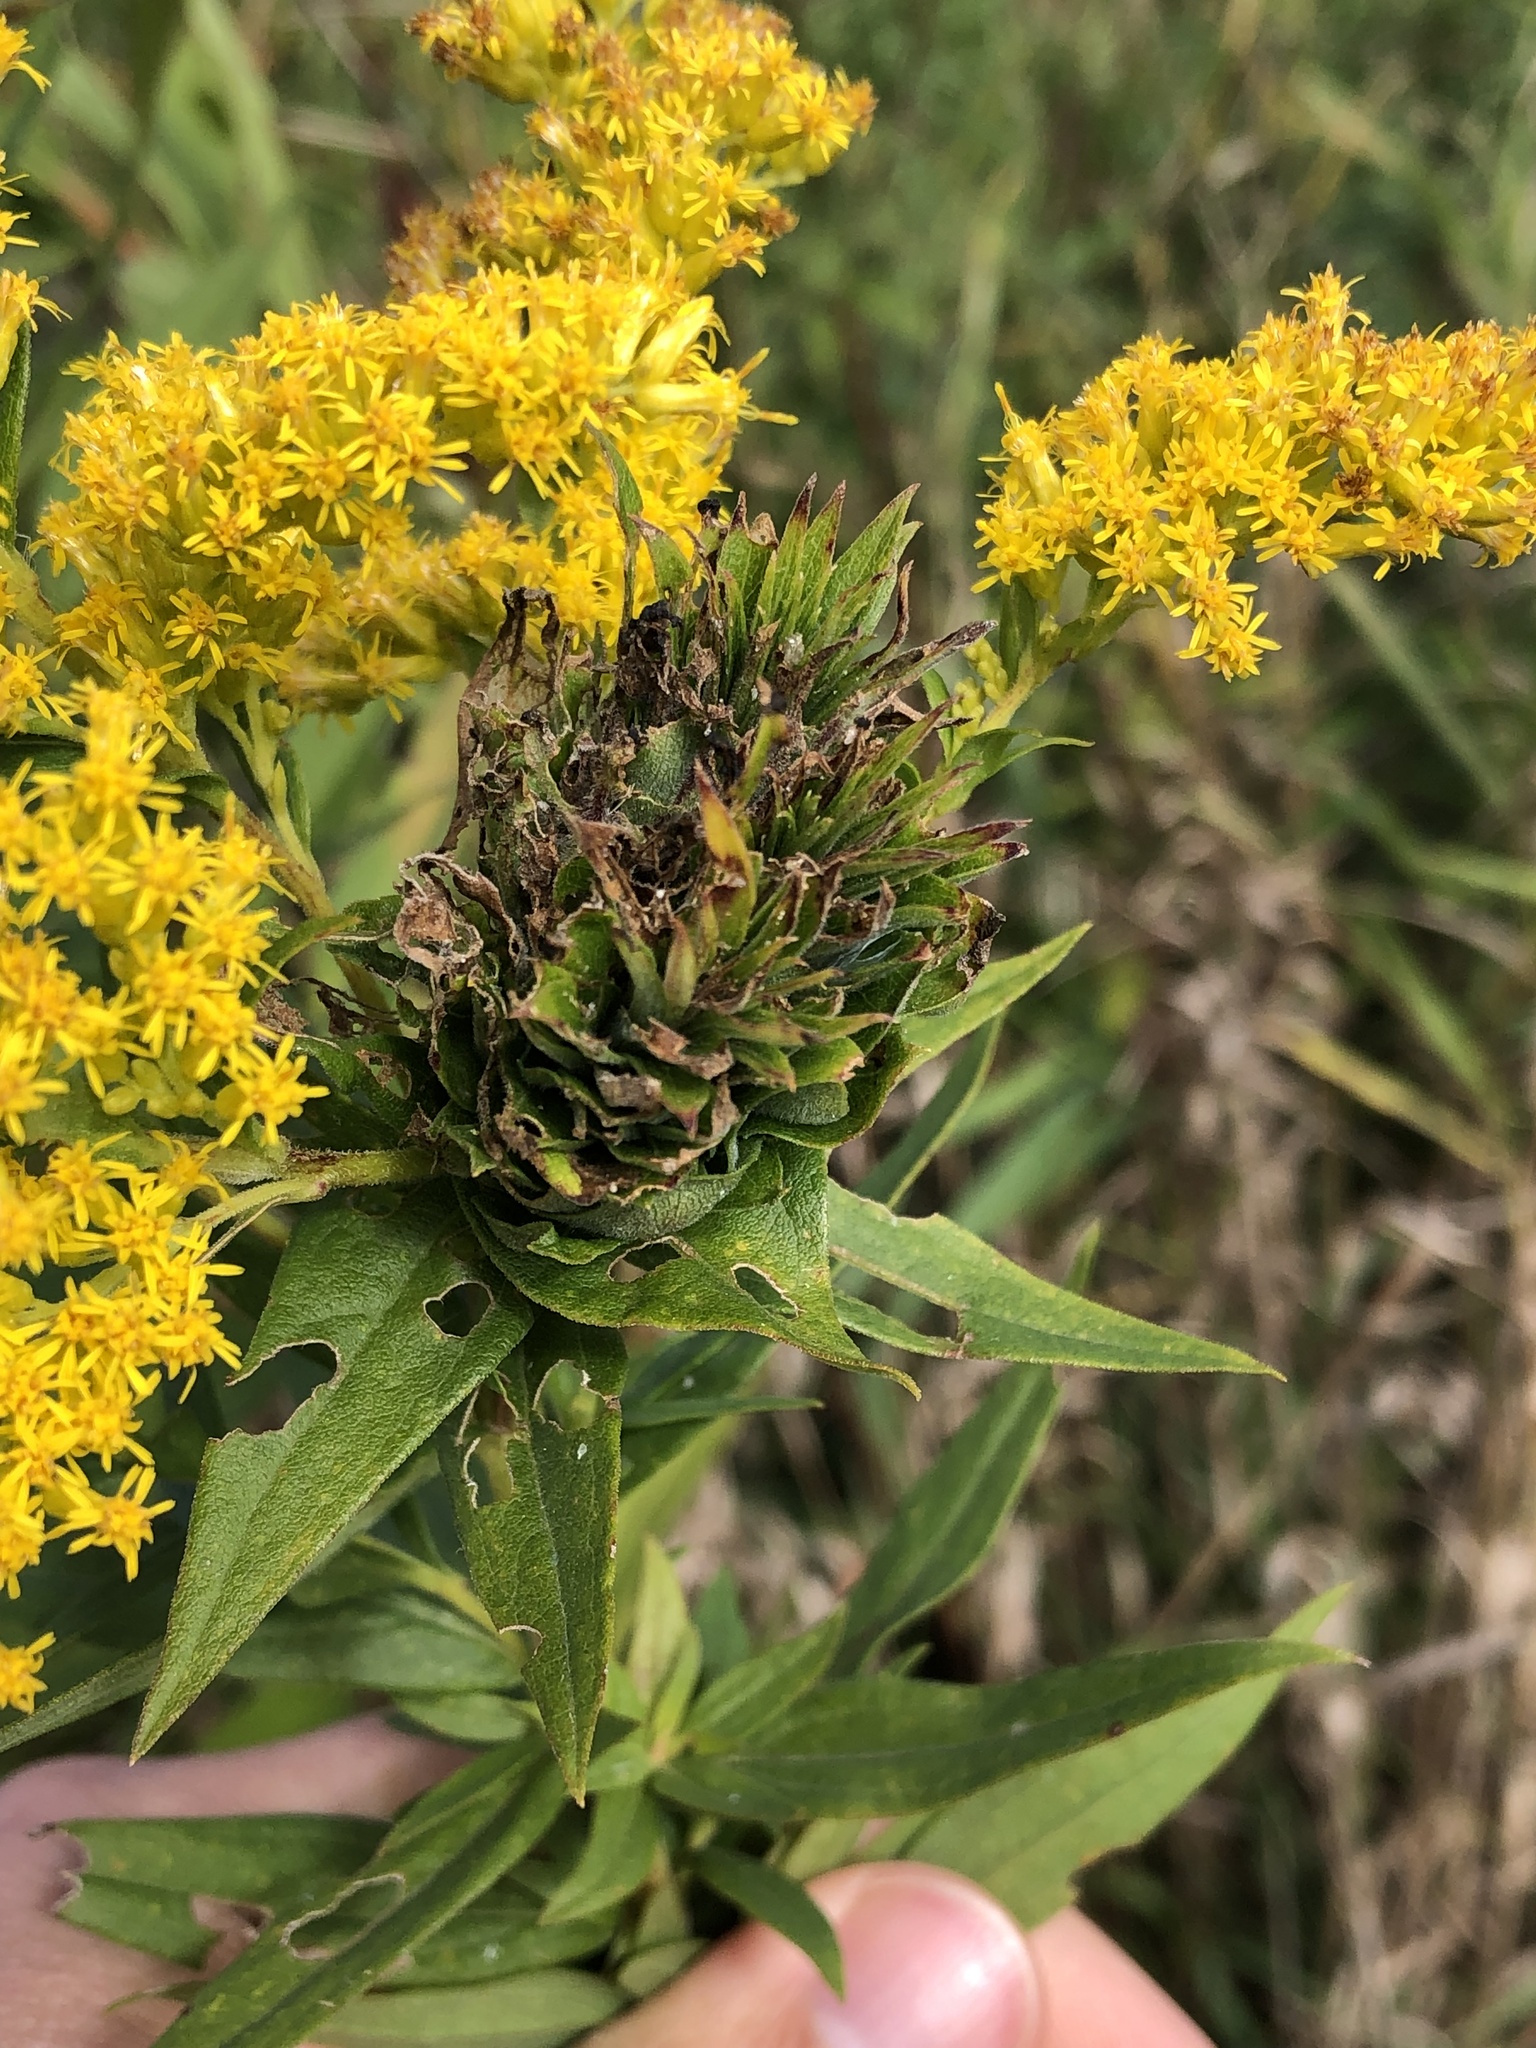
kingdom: Animalia
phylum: Arthropoda
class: Insecta
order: Diptera
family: Cecidomyiidae
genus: Rhopalomyia
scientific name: Rhopalomyia solidaginis
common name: Goldenrod bunch gall midge
